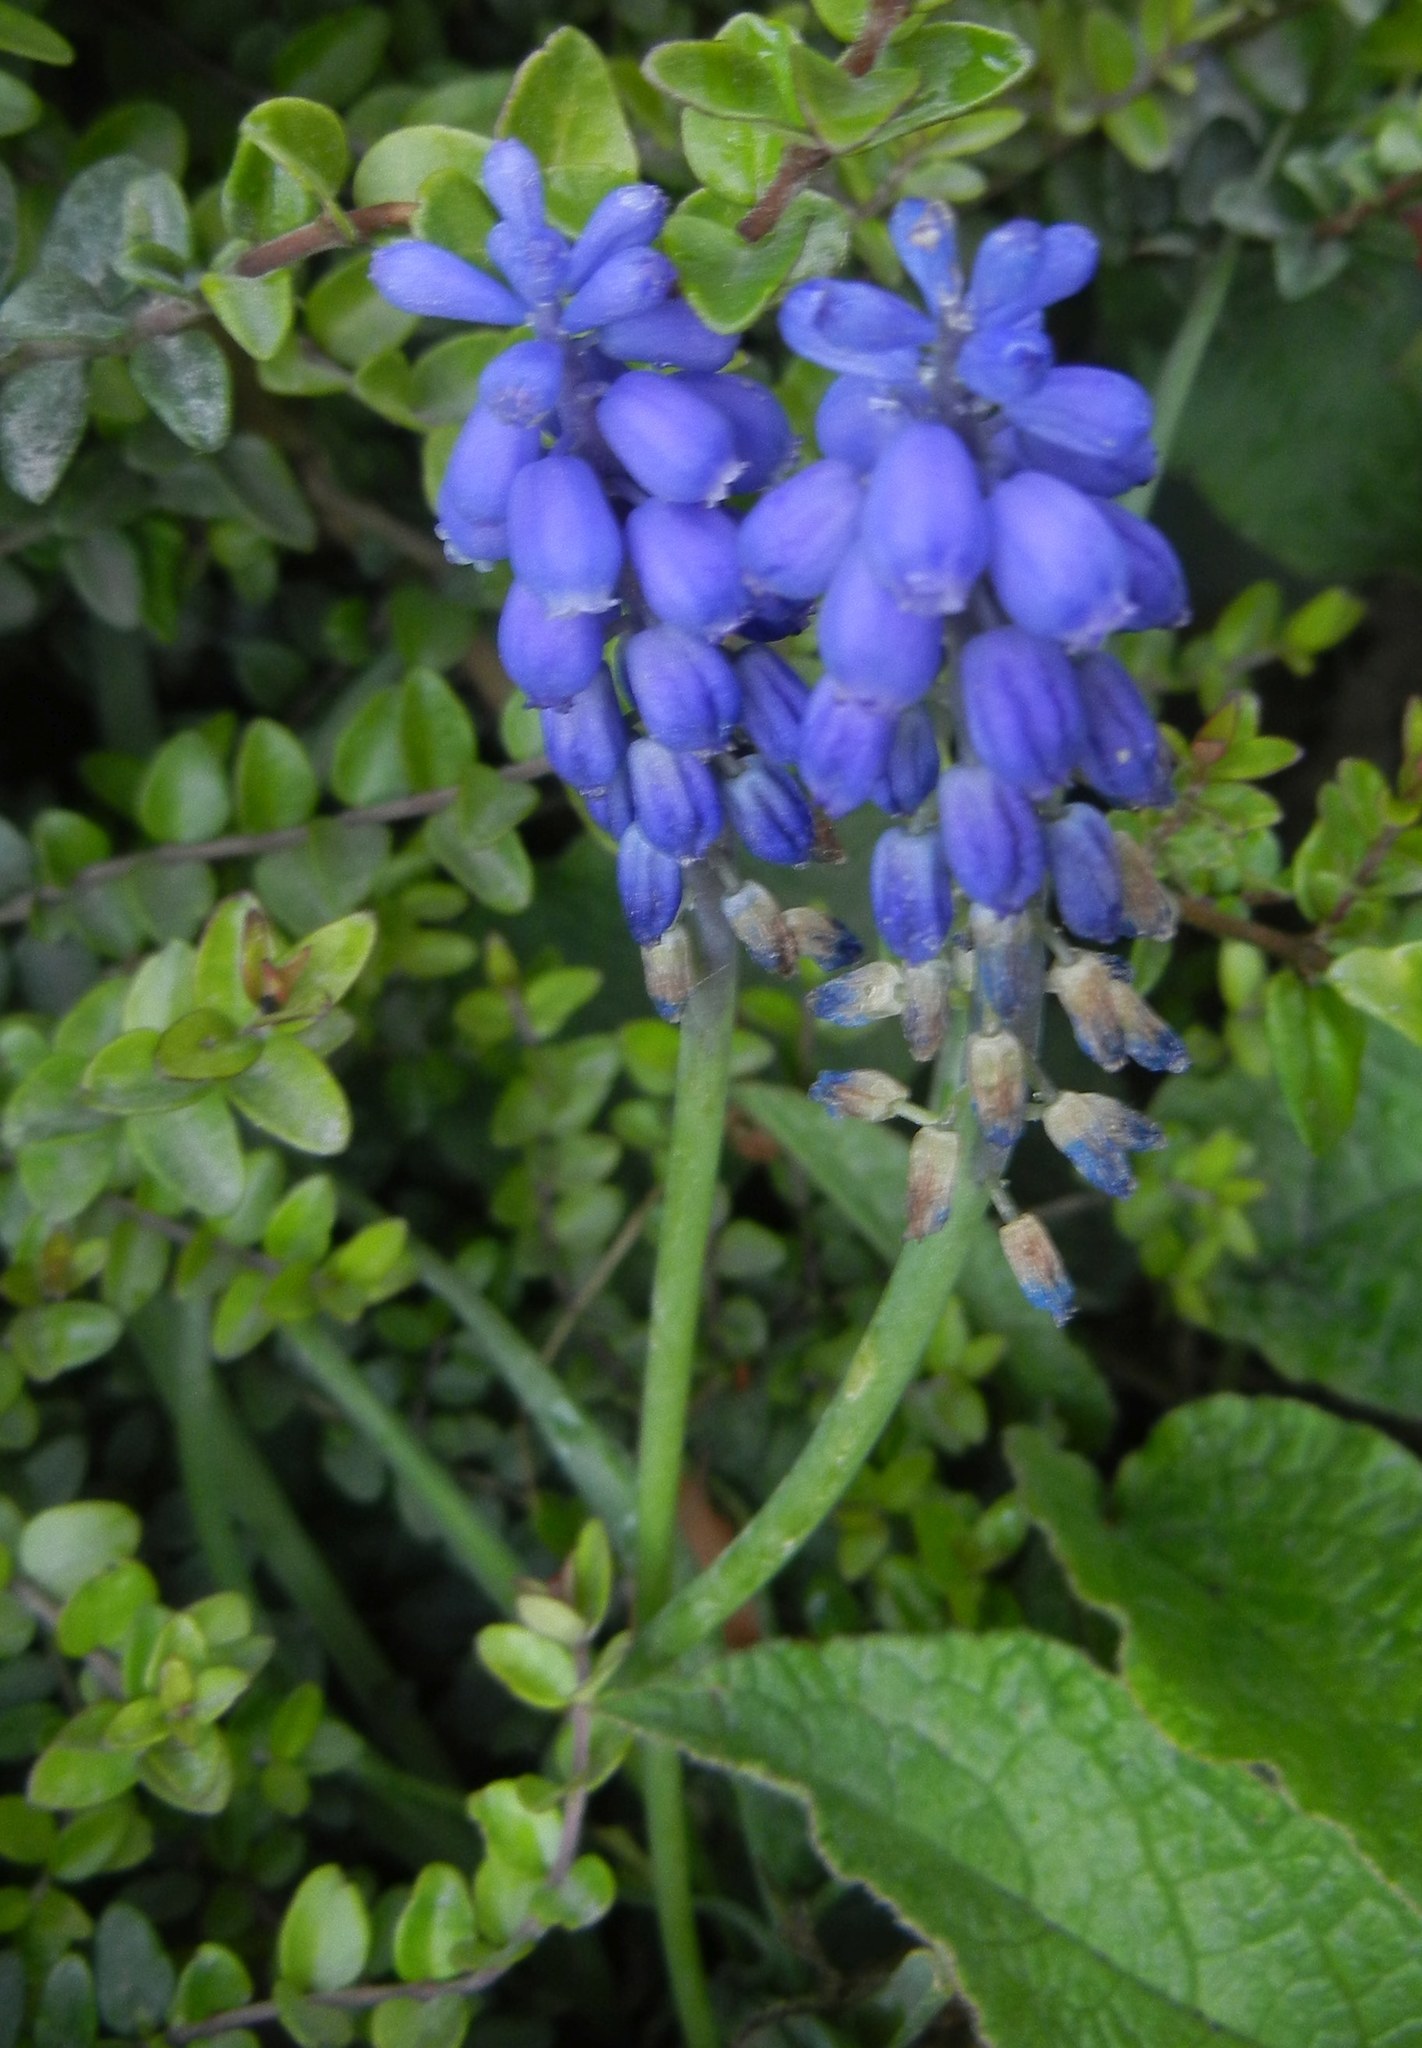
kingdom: Plantae
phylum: Tracheophyta
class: Liliopsida
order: Asparagales
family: Asparagaceae
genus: Muscari
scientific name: Muscari armeniacum
